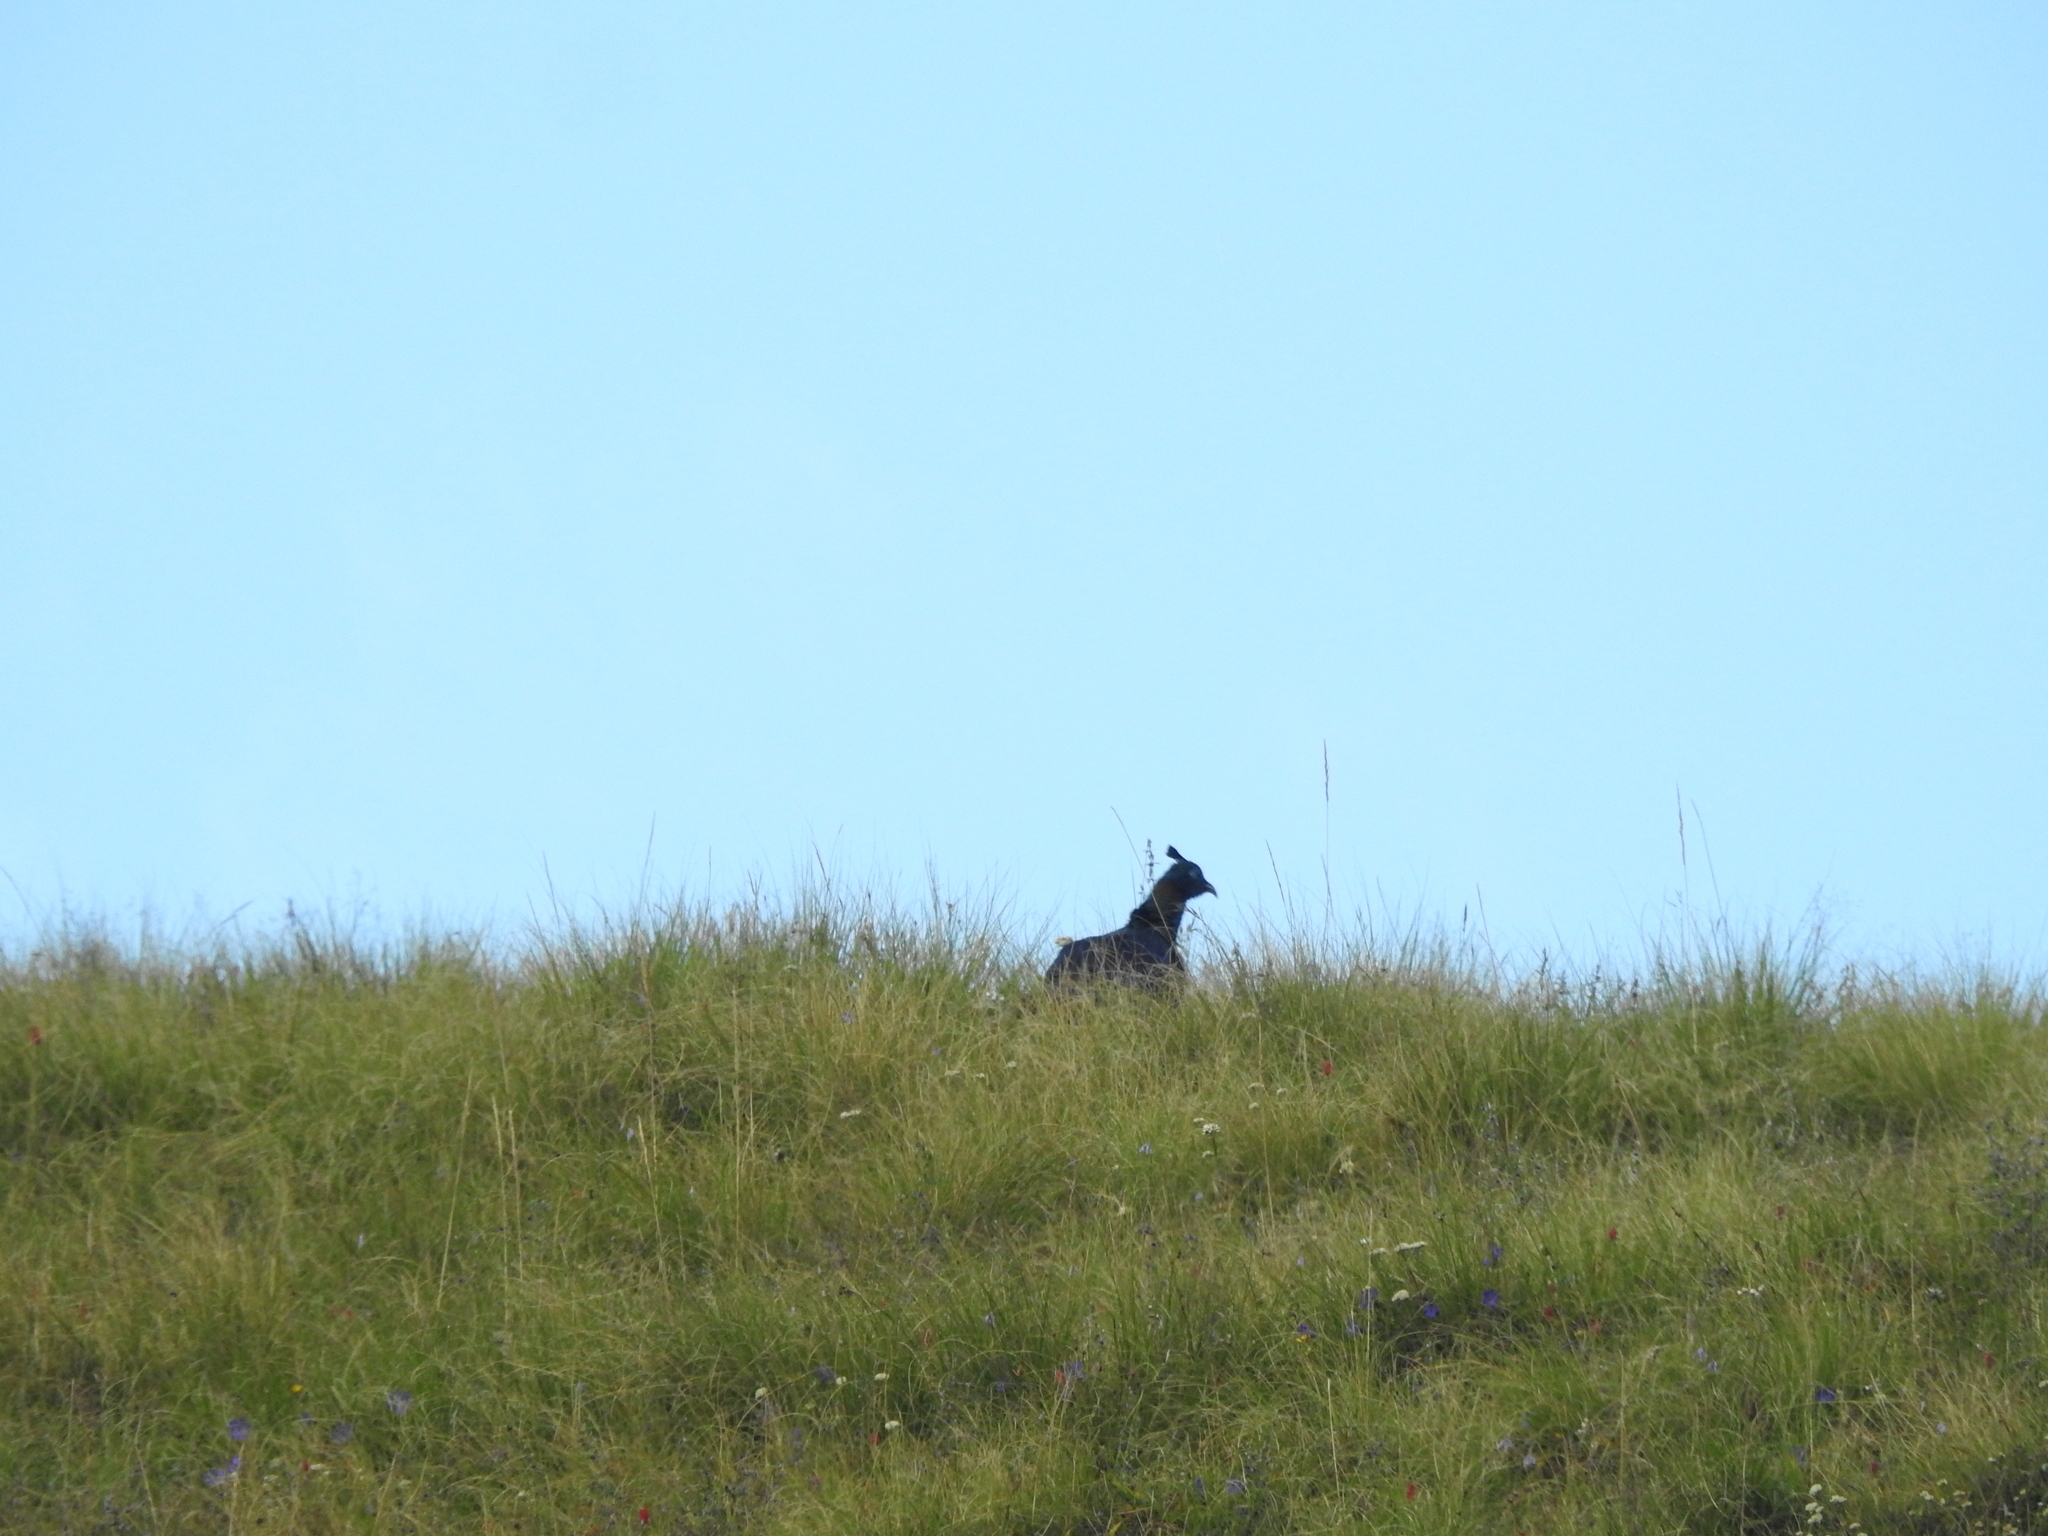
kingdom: Animalia
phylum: Chordata
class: Aves
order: Galliformes
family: Phasianidae
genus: Lophophorus
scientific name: Lophophorus impejanus
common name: Himalayan monal
